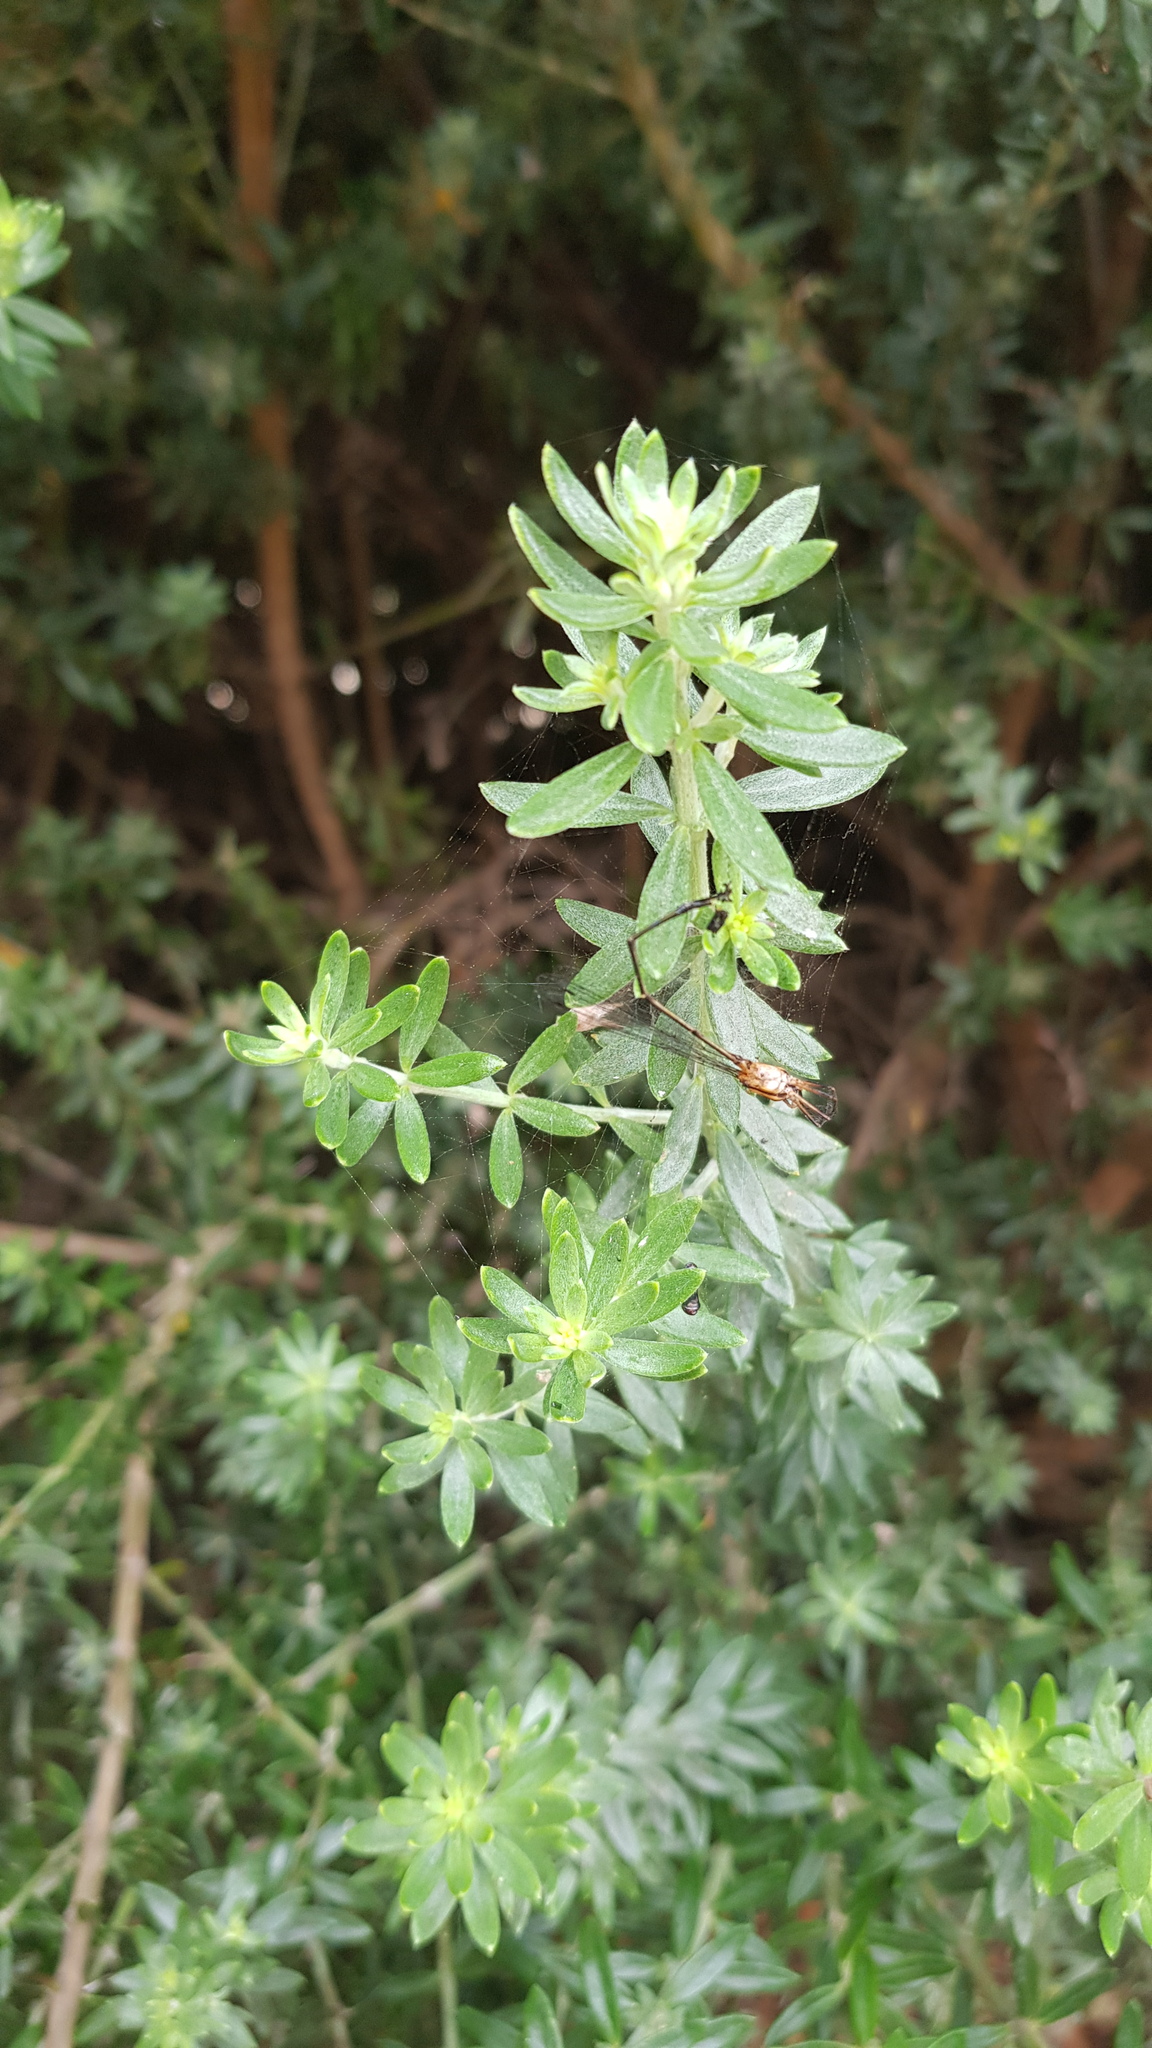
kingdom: Animalia
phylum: Arthropoda
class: Insecta
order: Odonata
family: Platycnemididae
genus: Nososticta
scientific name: Nososticta solida
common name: Orange threadtail
